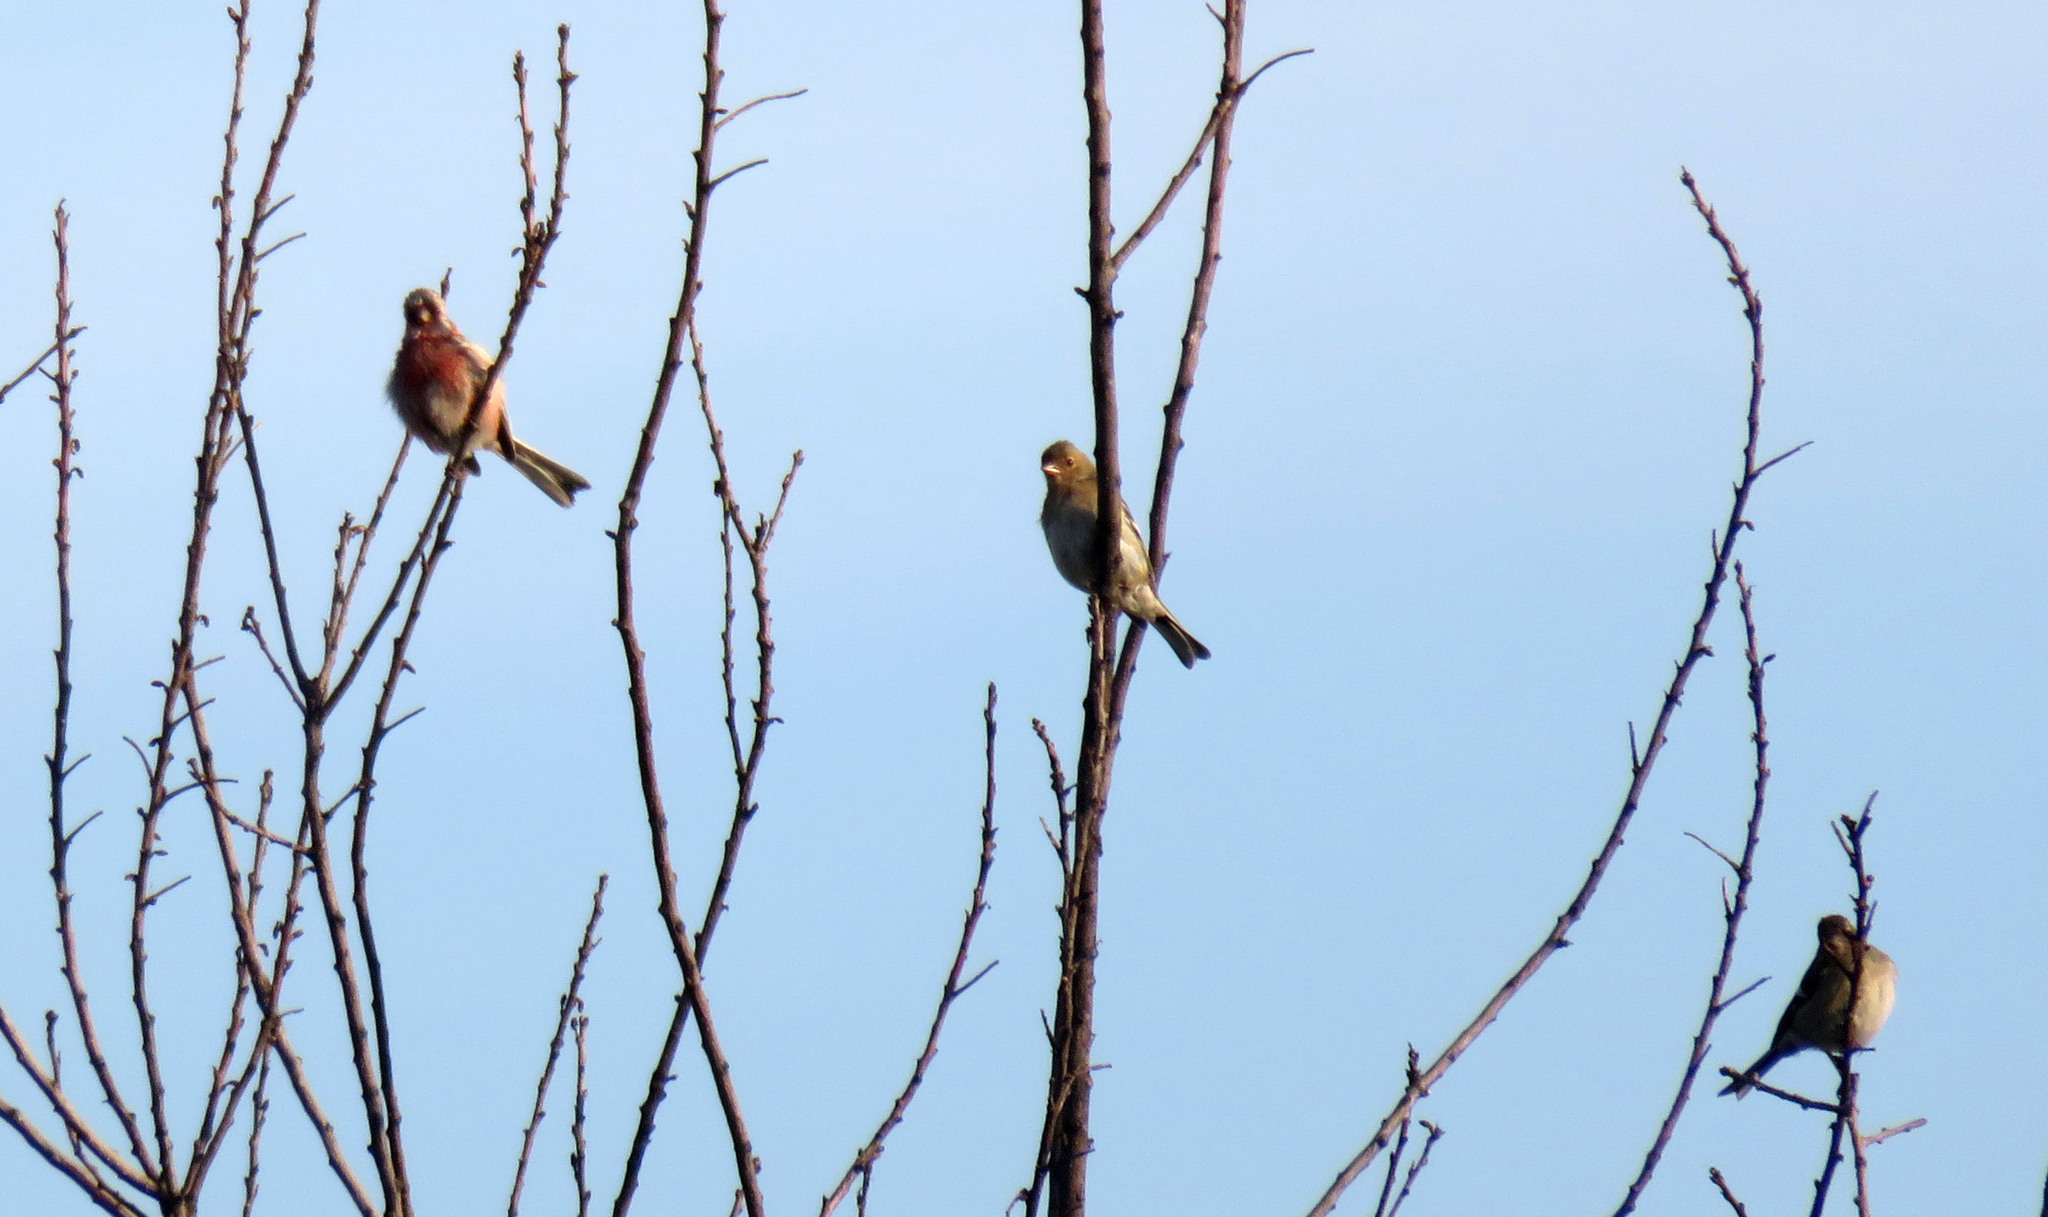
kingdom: Animalia
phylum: Chordata
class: Aves
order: Passeriformes
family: Fringillidae
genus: Carpodacus
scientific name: Carpodacus sibiricus
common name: Long-tailed rosefinch
